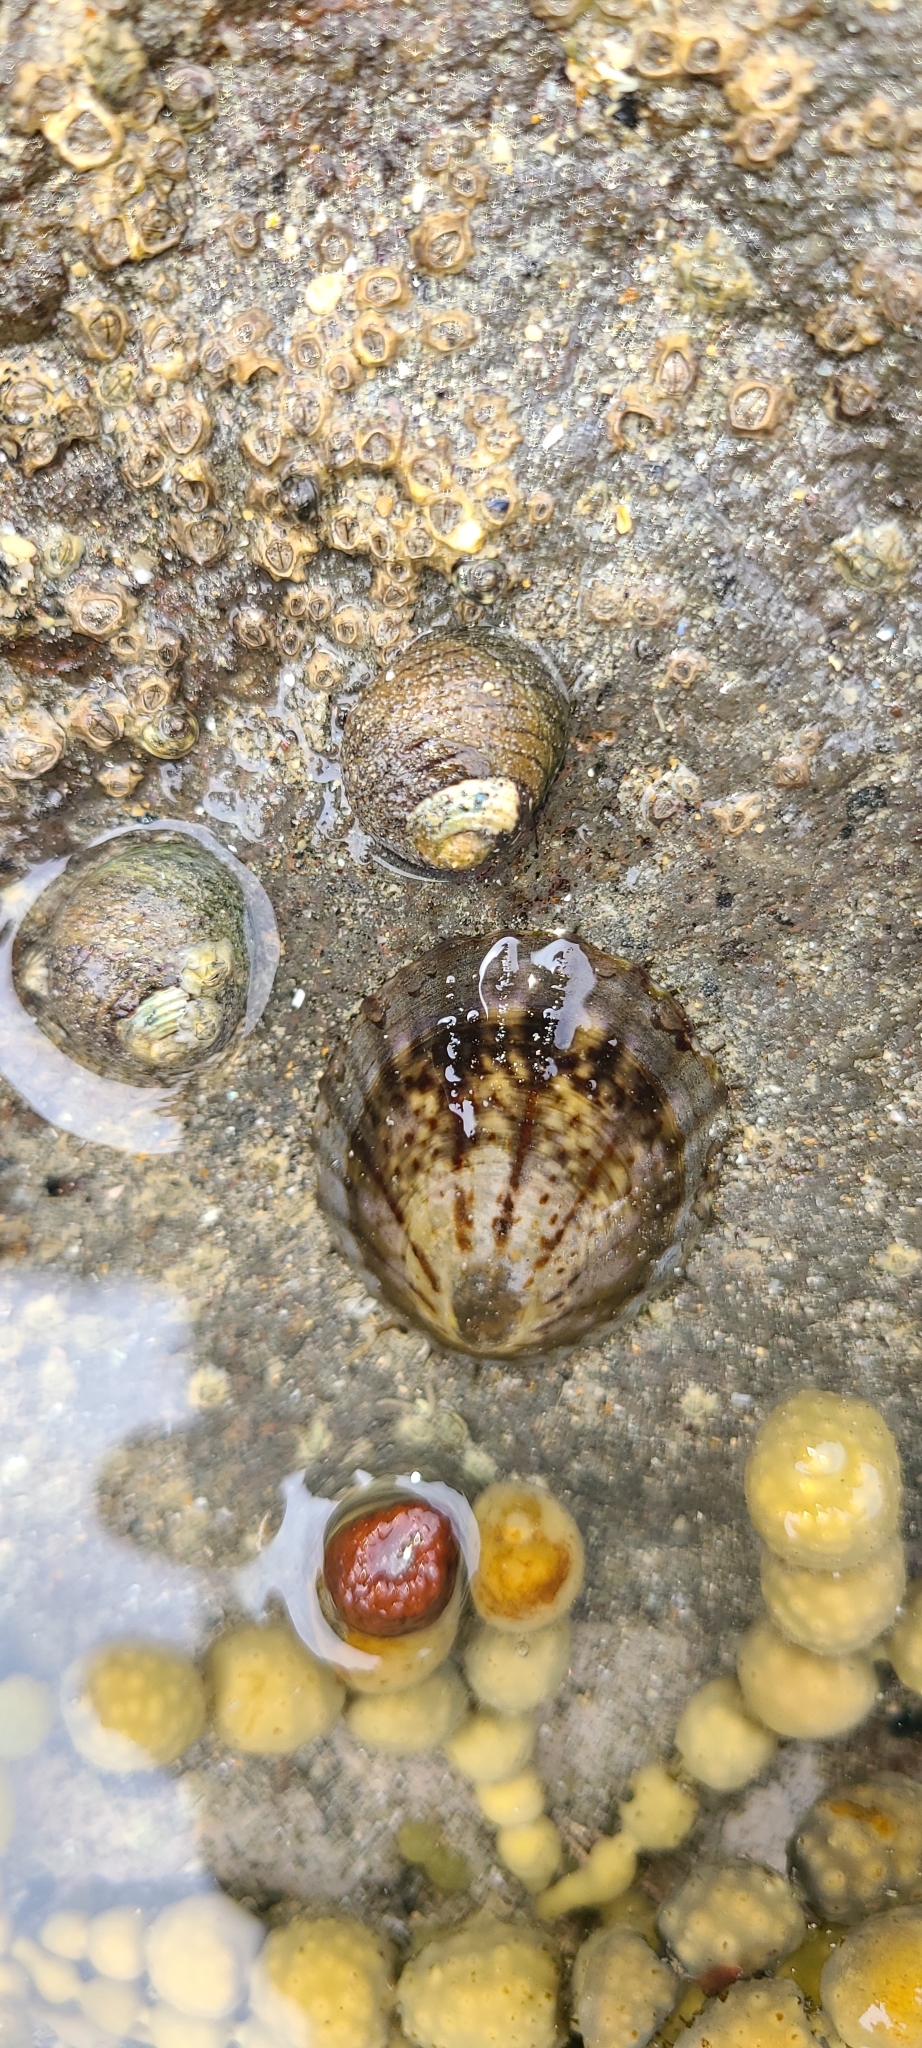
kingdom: Animalia
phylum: Mollusca
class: Gastropoda
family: Nacellidae
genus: Cellana
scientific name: Cellana radians
